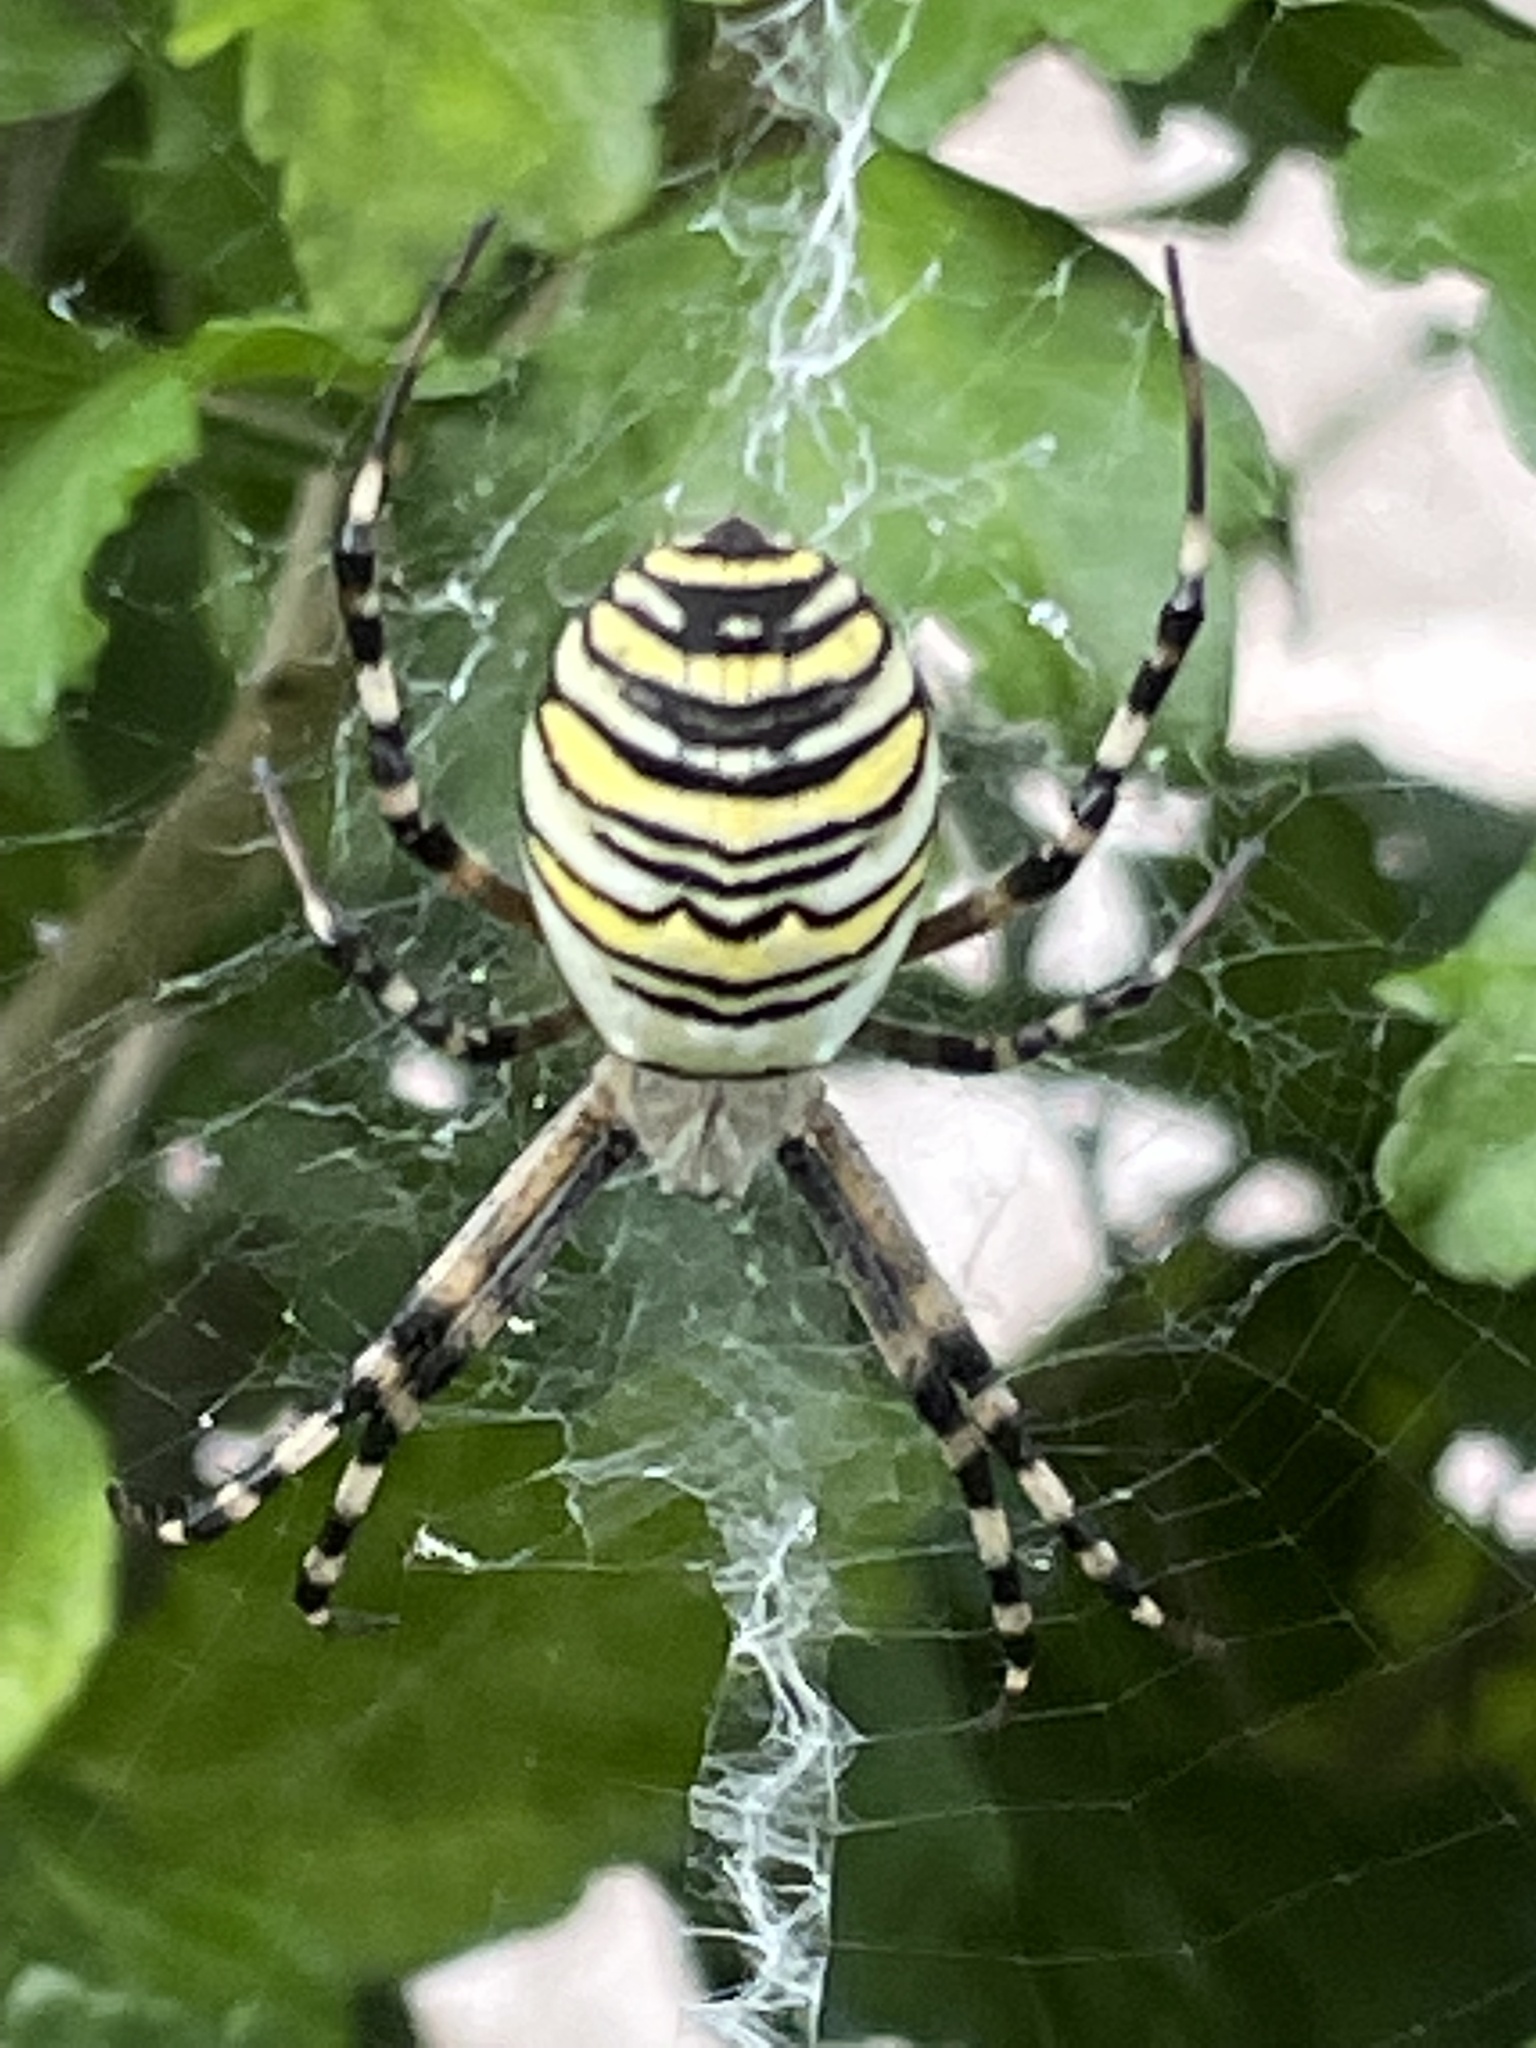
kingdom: Animalia
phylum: Arthropoda
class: Arachnida
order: Araneae
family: Araneidae
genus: Argiope
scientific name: Argiope bruennichi
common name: Wasp spider
